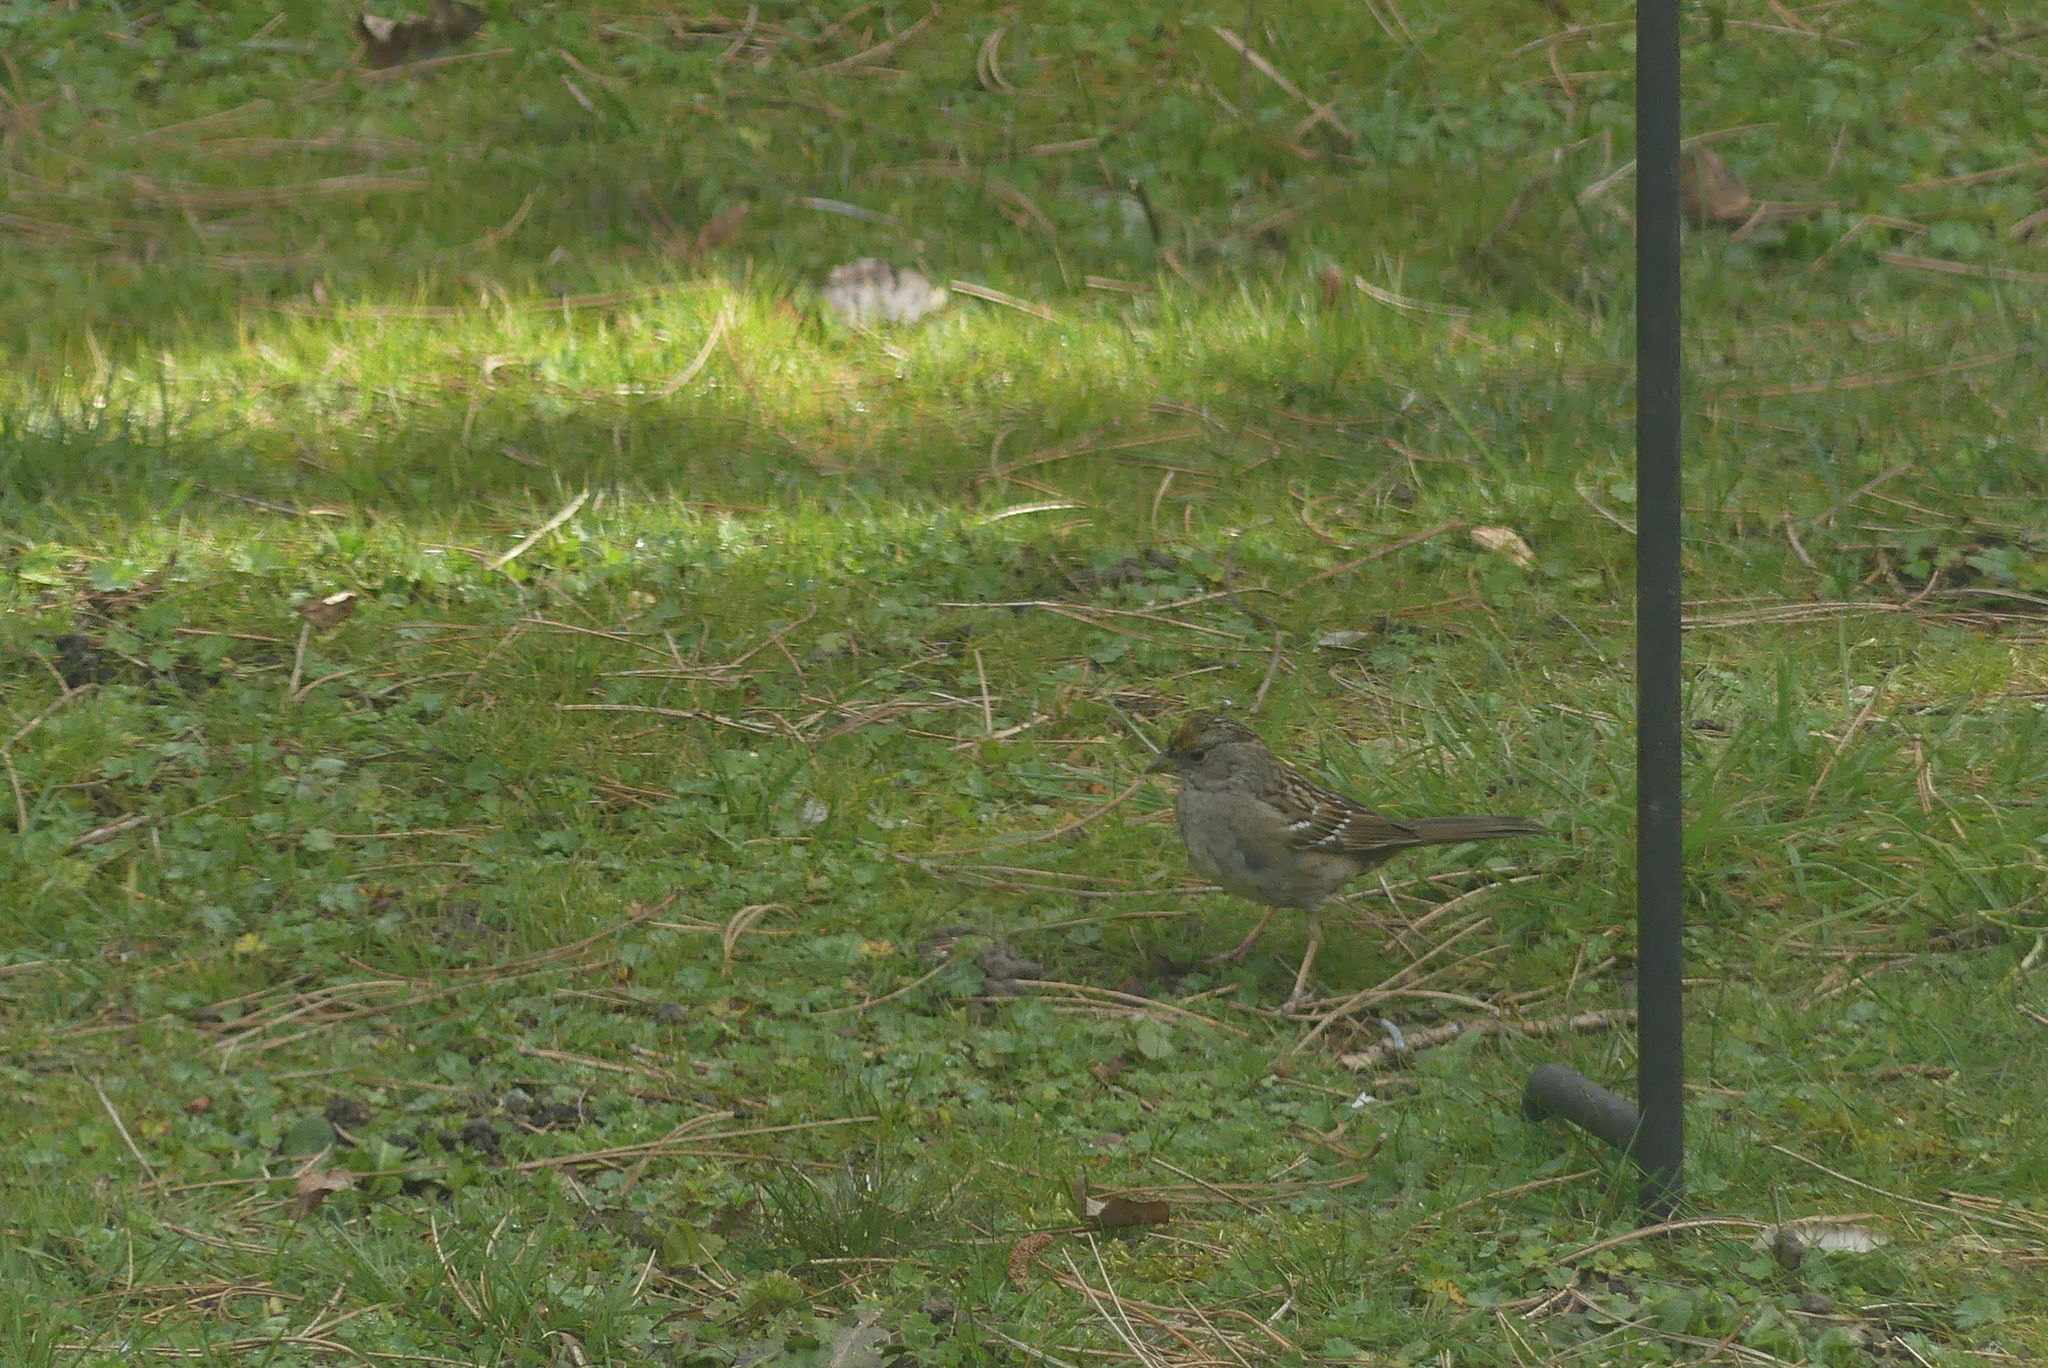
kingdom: Animalia
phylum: Chordata
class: Aves
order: Passeriformes
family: Passerellidae
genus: Zonotrichia
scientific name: Zonotrichia atricapilla
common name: Golden-crowned sparrow
